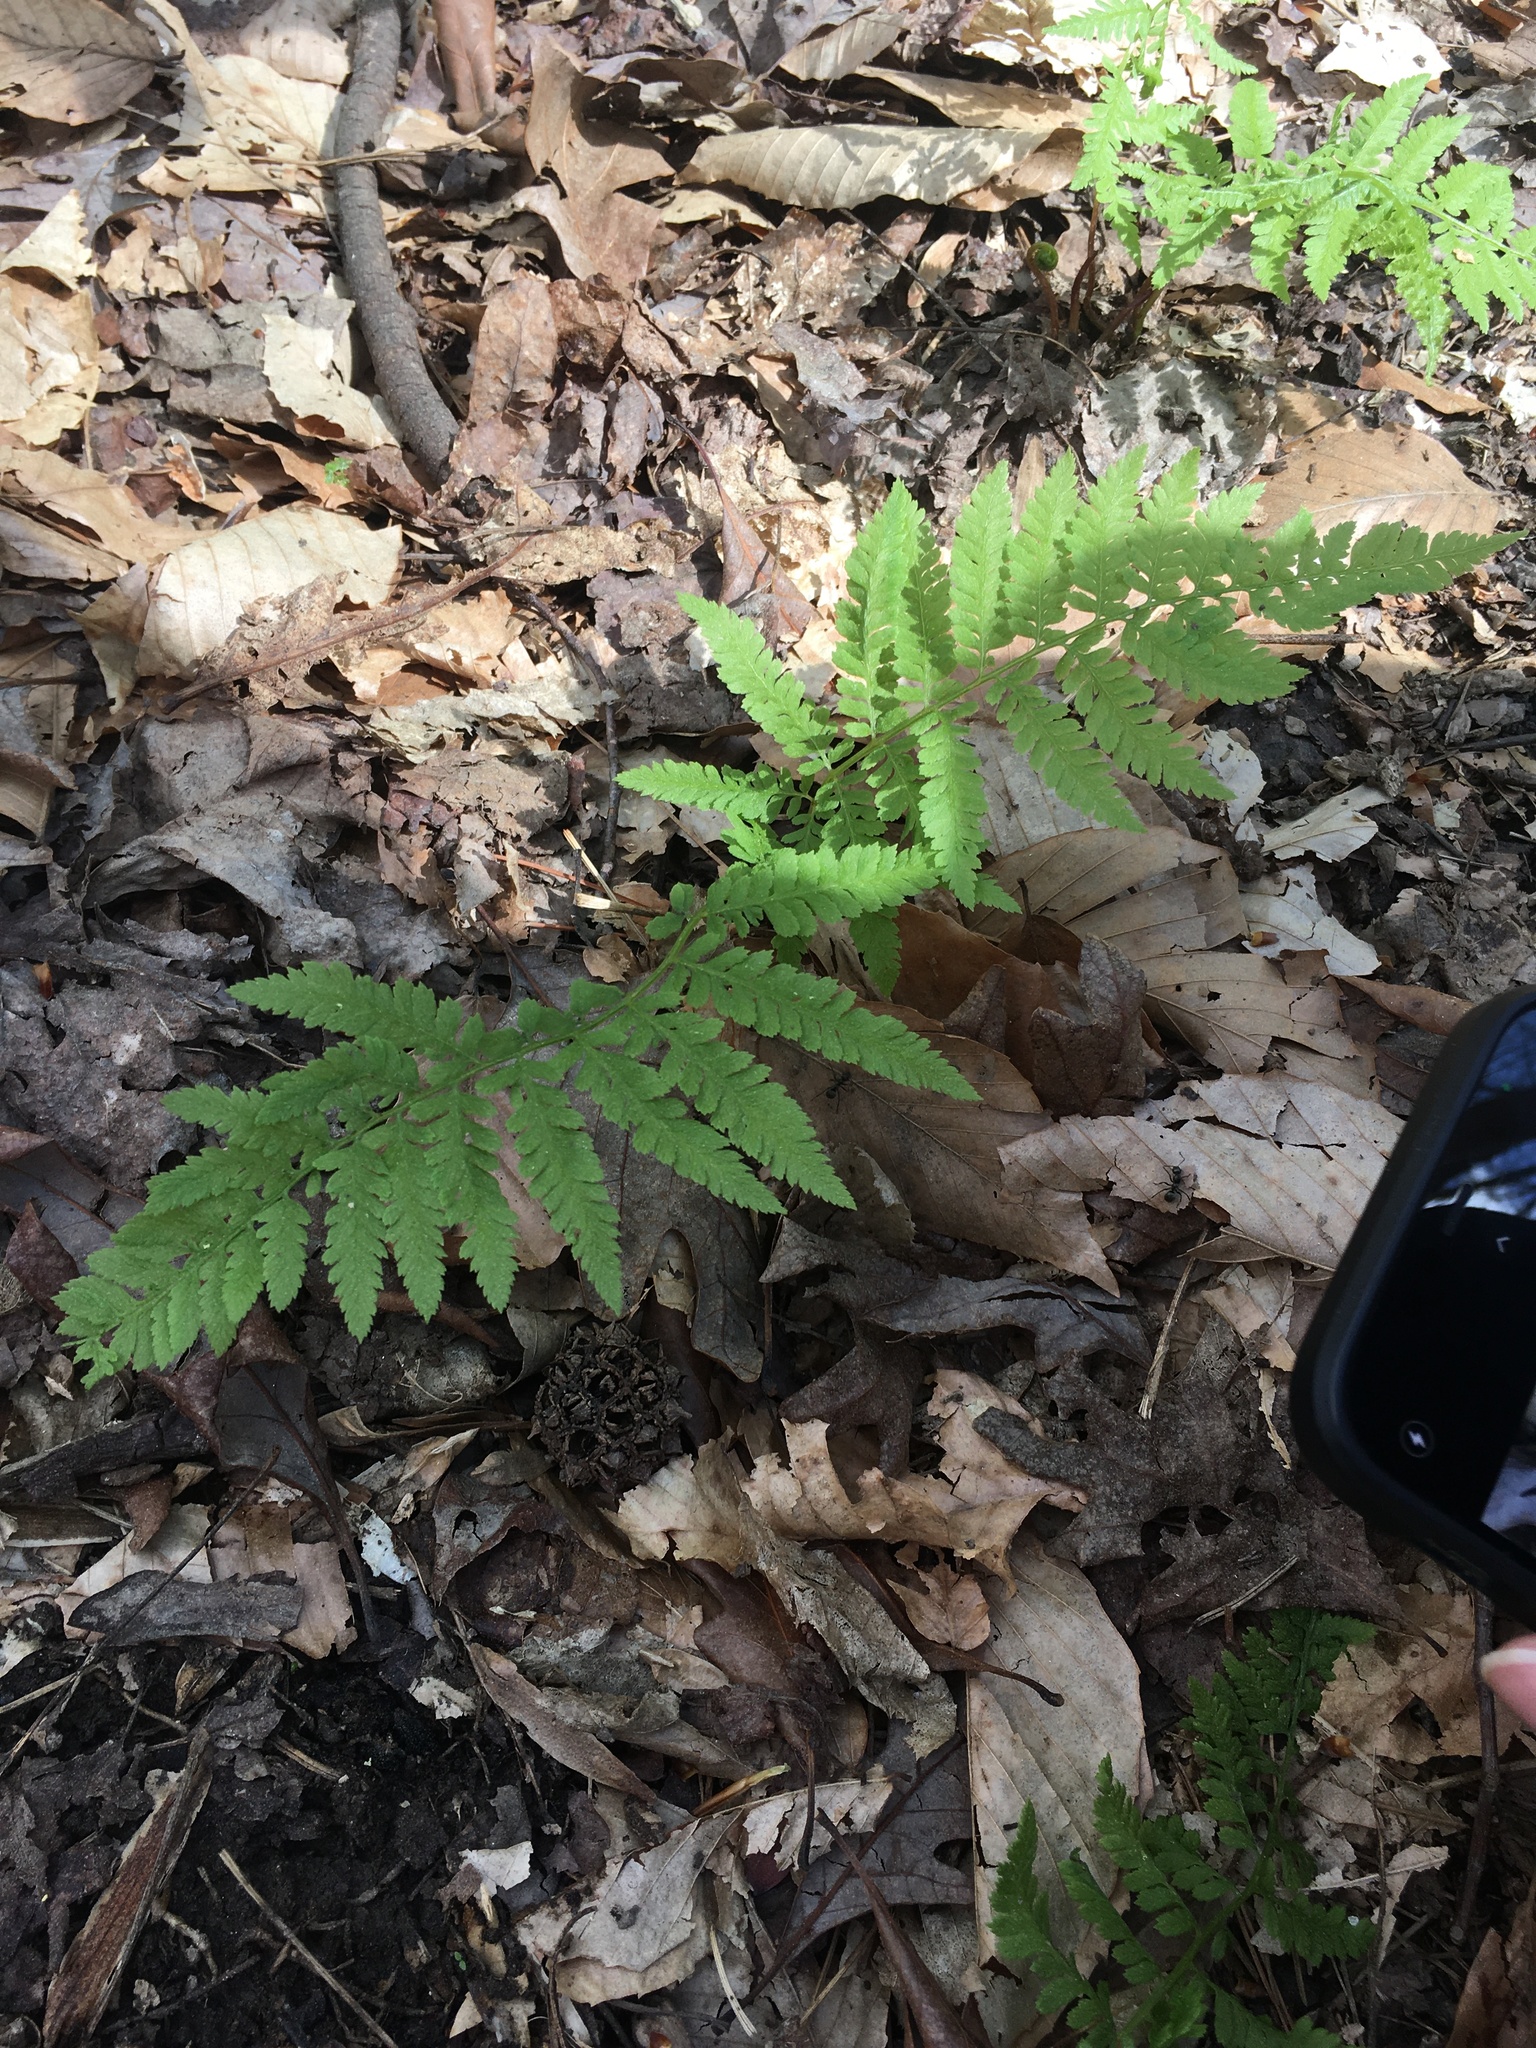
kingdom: Plantae
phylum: Tracheophyta
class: Polypodiopsida
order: Polypodiales
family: Athyriaceae
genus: Athyrium
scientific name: Athyrium asplenioides
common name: Southern lady fern
